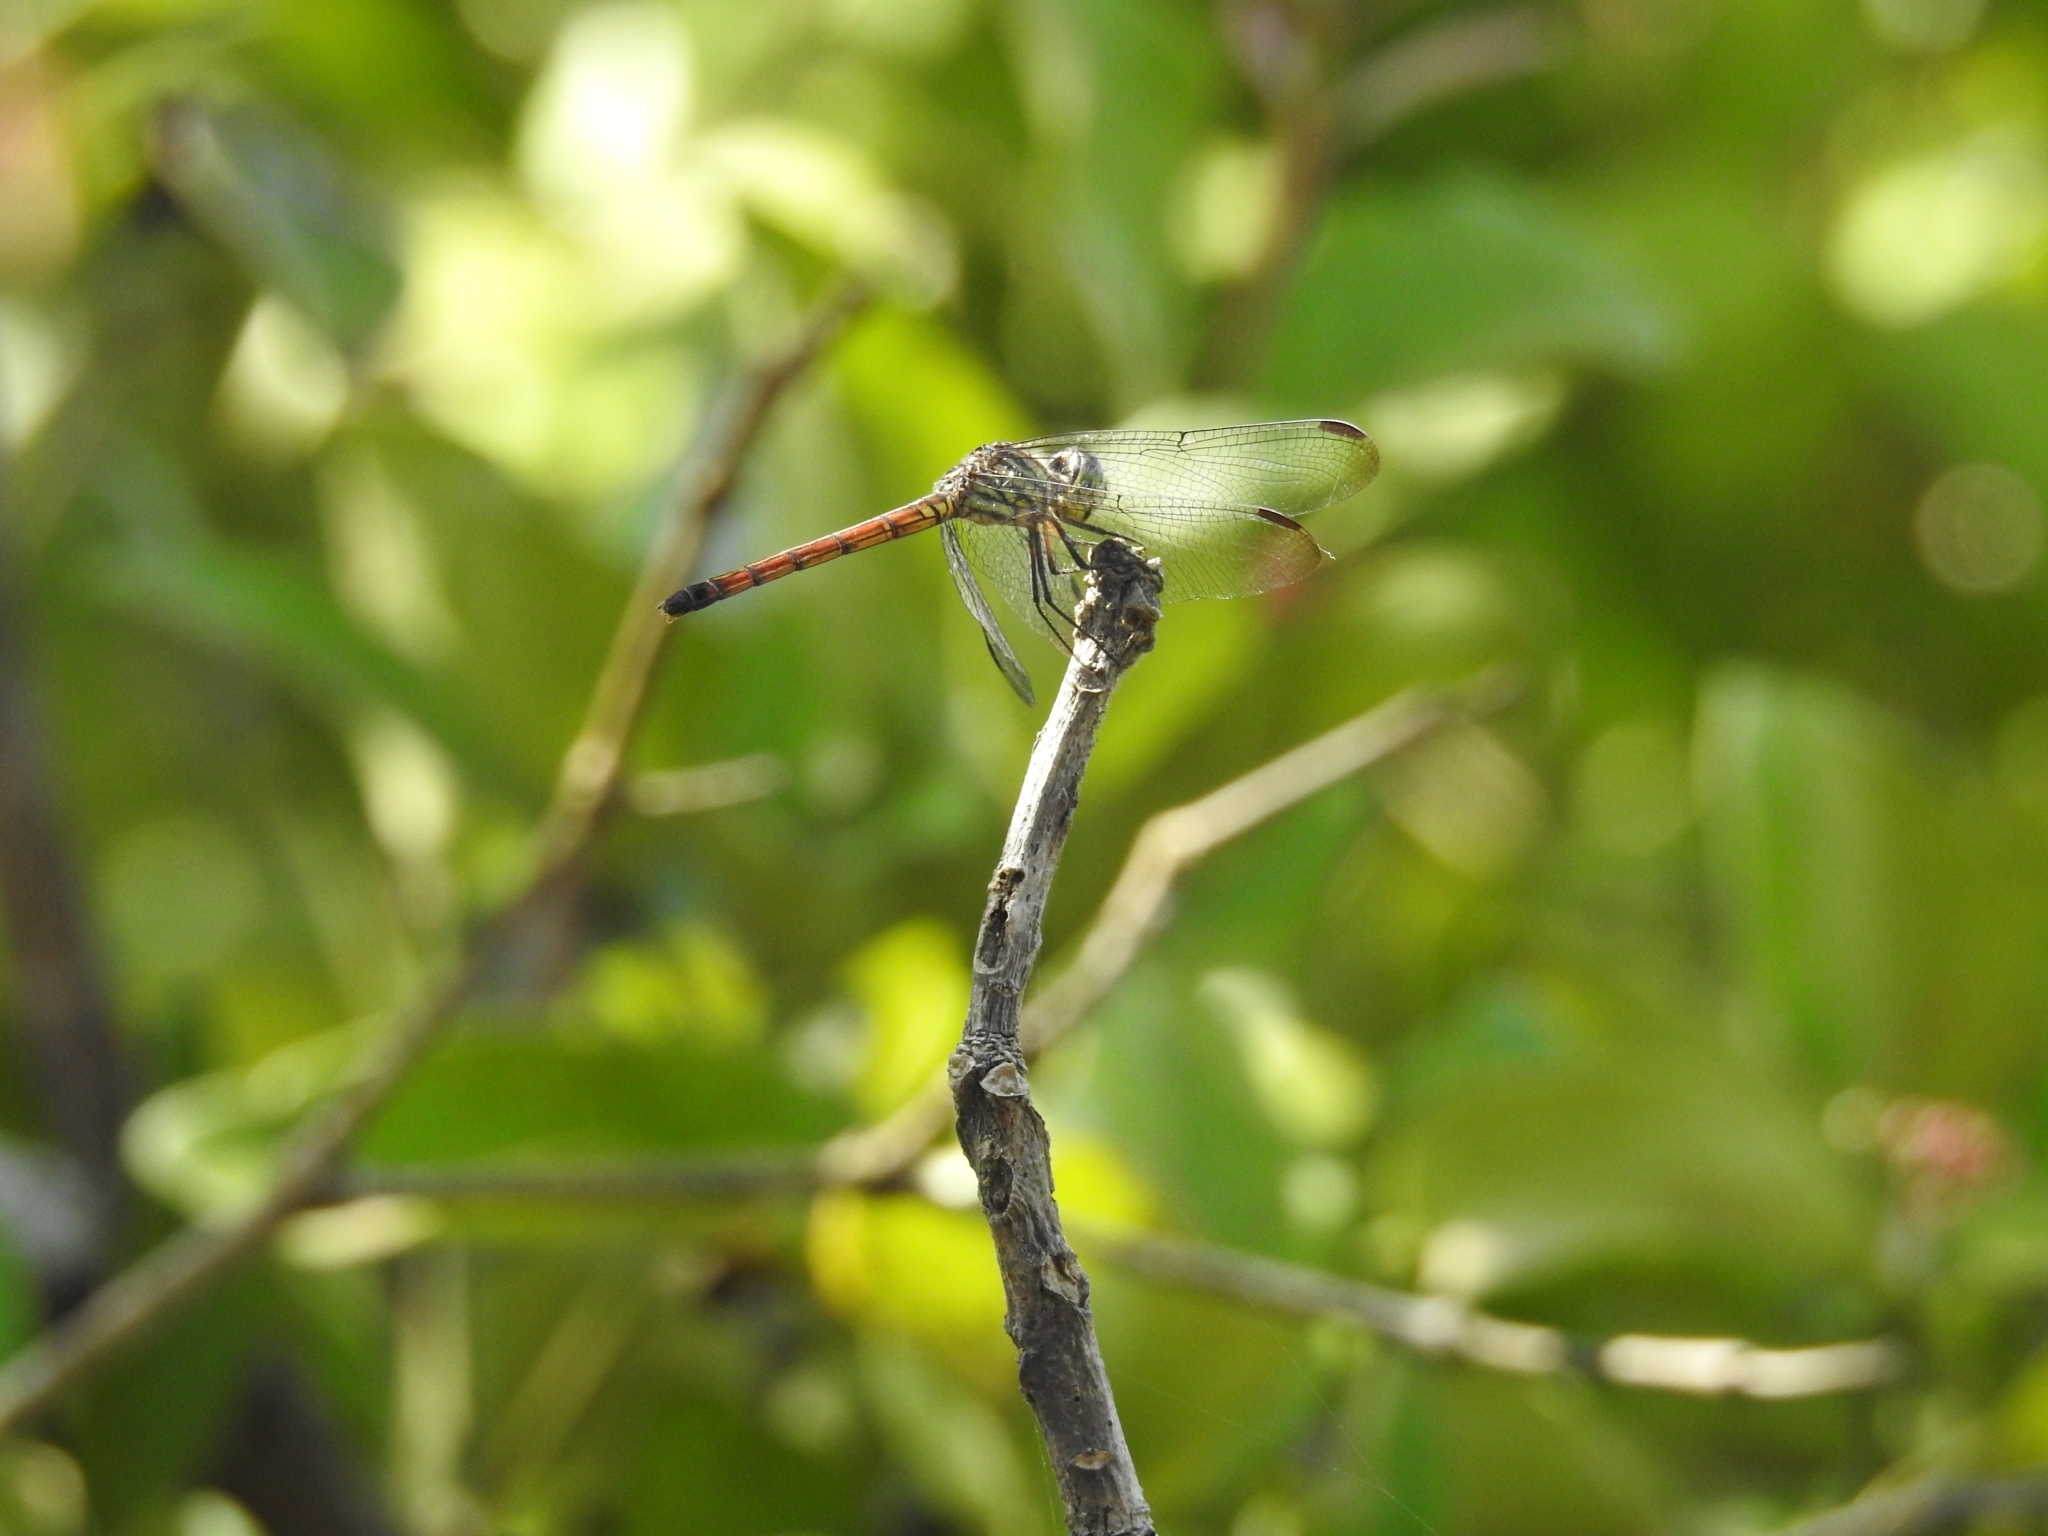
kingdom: Animalia
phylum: Arthropoda
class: Insecta
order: Odonata
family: Libellulidae
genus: Lathrecista
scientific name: Lathrecista asiatica
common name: Scarlet grenadier
